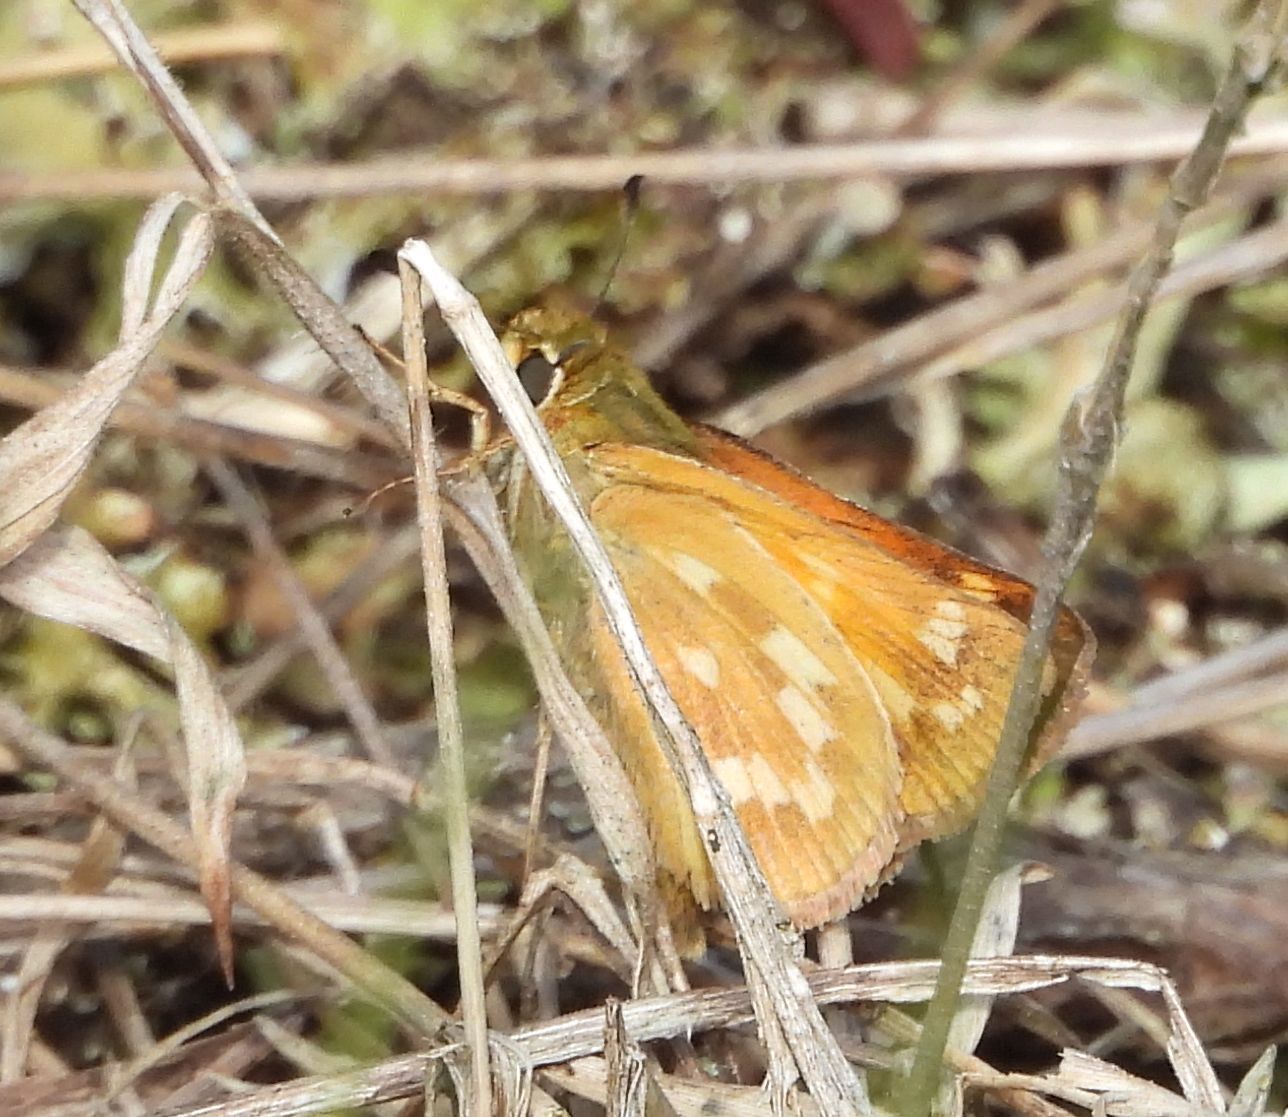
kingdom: Animalia
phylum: Arthropoda
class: Insecta
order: Lepidoptera
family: Hesperiidae
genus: Hesperia
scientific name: Hesperia sassacus
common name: Indian skipper
